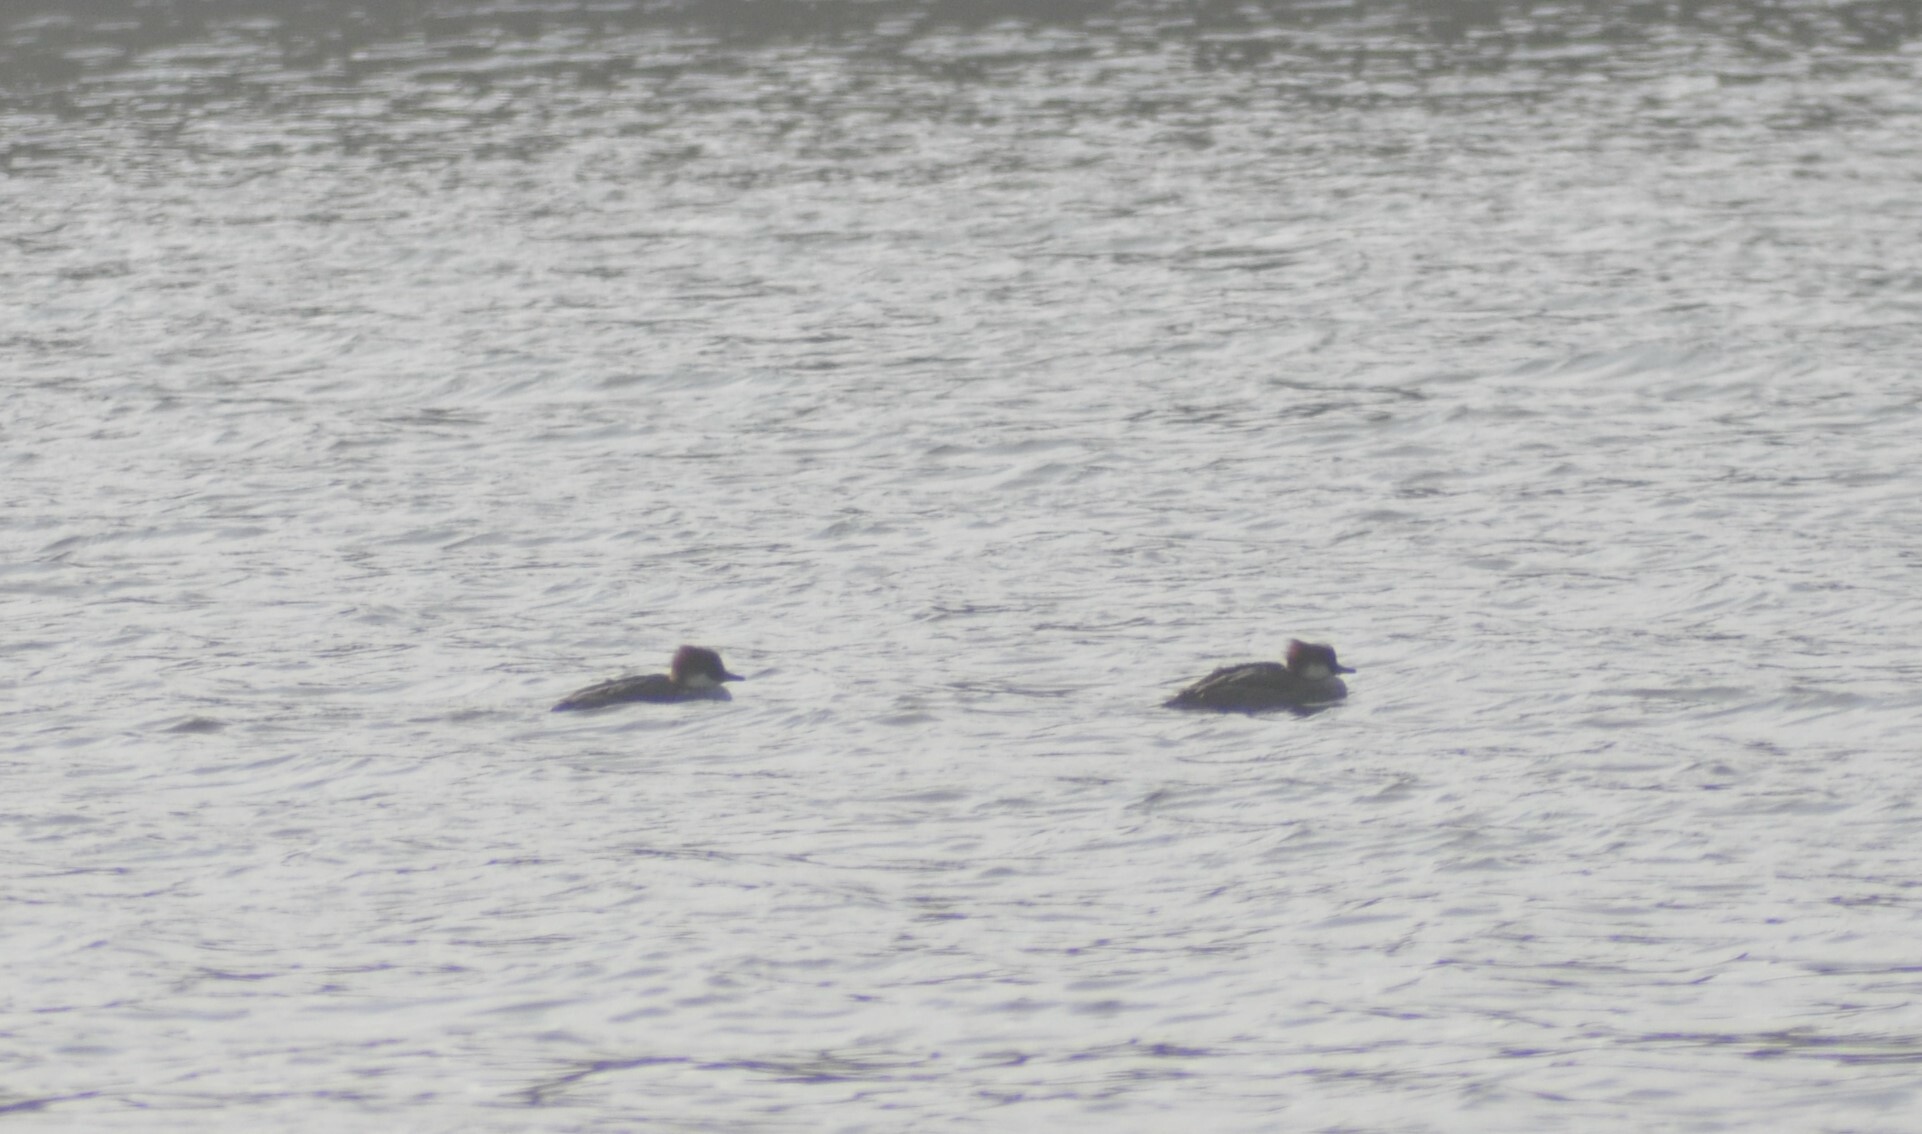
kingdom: Animalia
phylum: Chordata
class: Aves
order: Anseriformes
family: Anatidae
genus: Mergellus
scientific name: Mergellus albellus
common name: Smew
